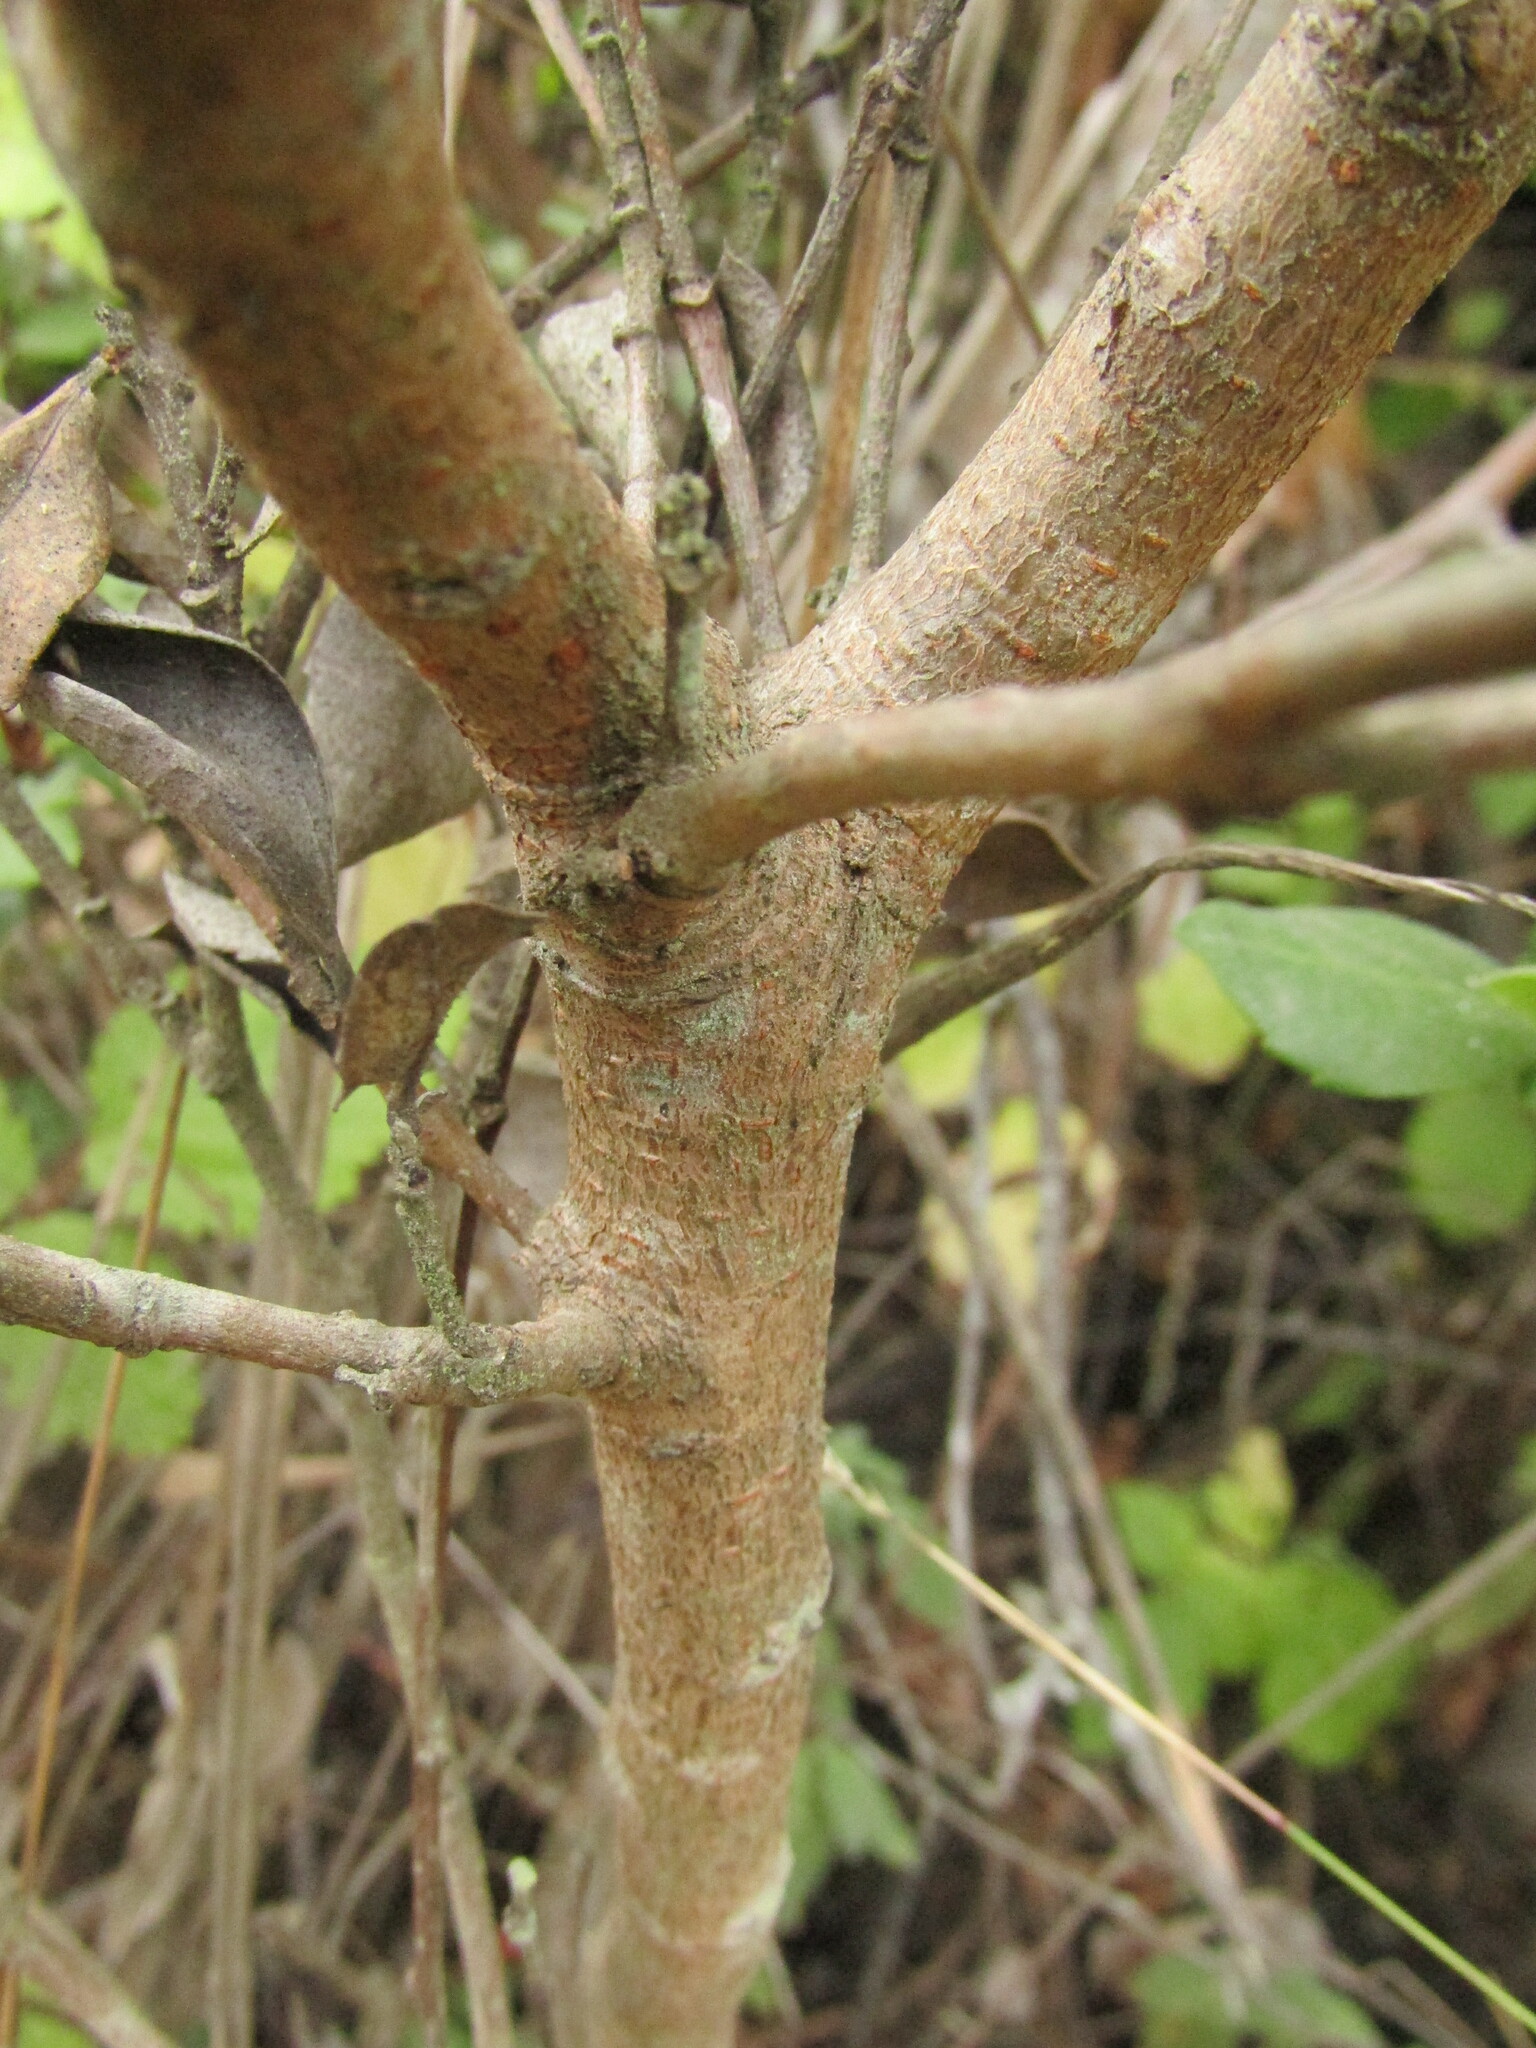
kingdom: Plantae
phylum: Tracheophyta
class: Magnoliopsida
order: Malpighiales
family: Salicaceae
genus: Azara
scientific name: Azara integrifolia
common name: Goldspire
